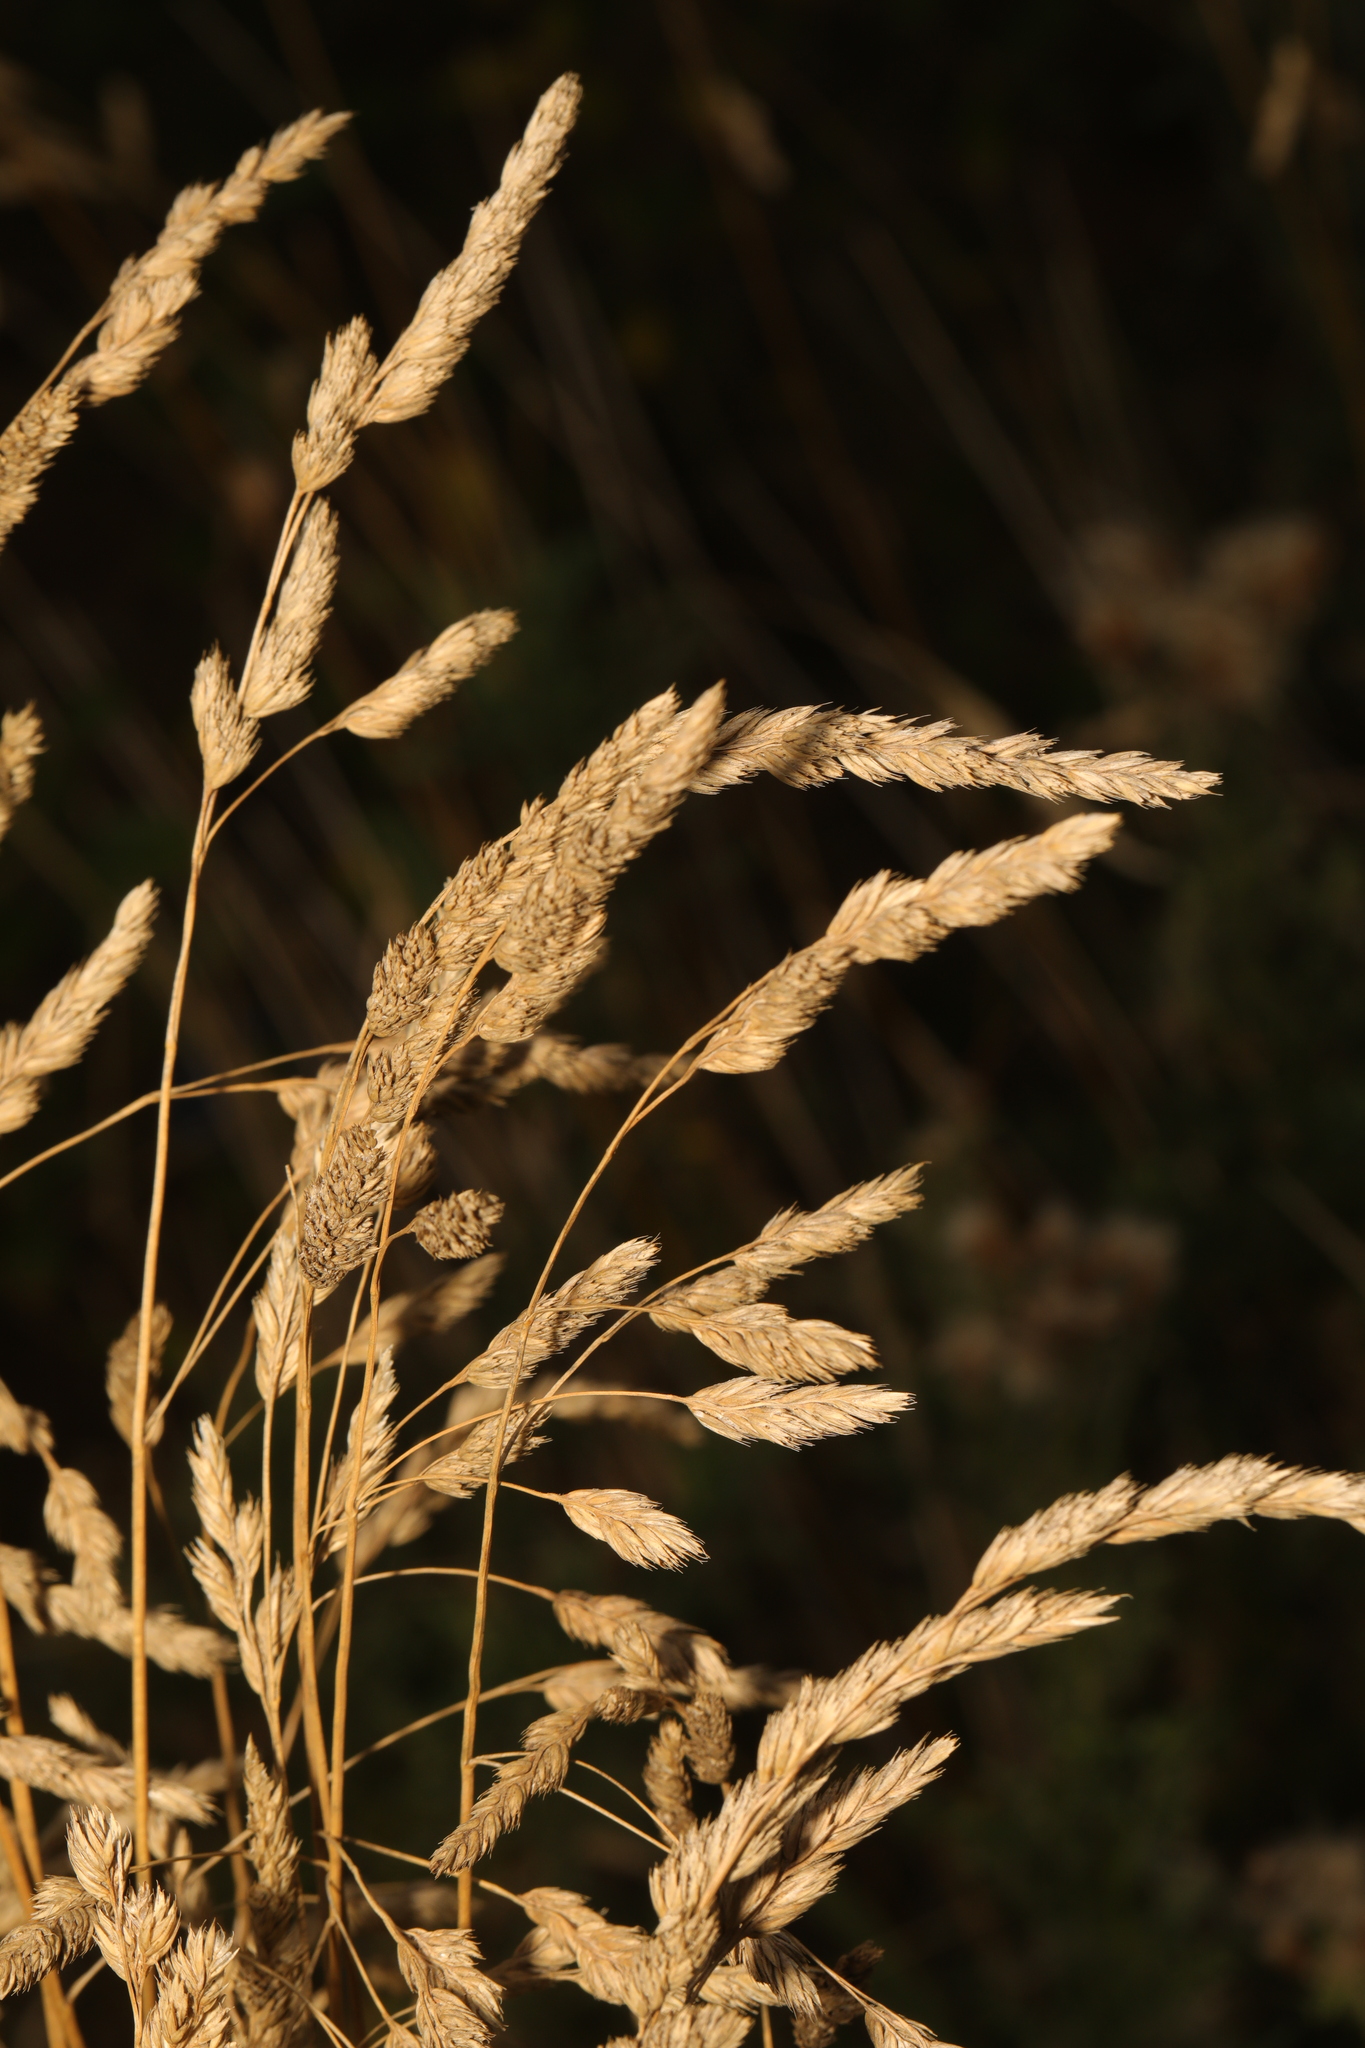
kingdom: Plantae
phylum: Tracheophyta
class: Liliopsida
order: Poales
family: Poaceae
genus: Dactylis
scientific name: Dactylis glomerata
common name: Orchardgrass
